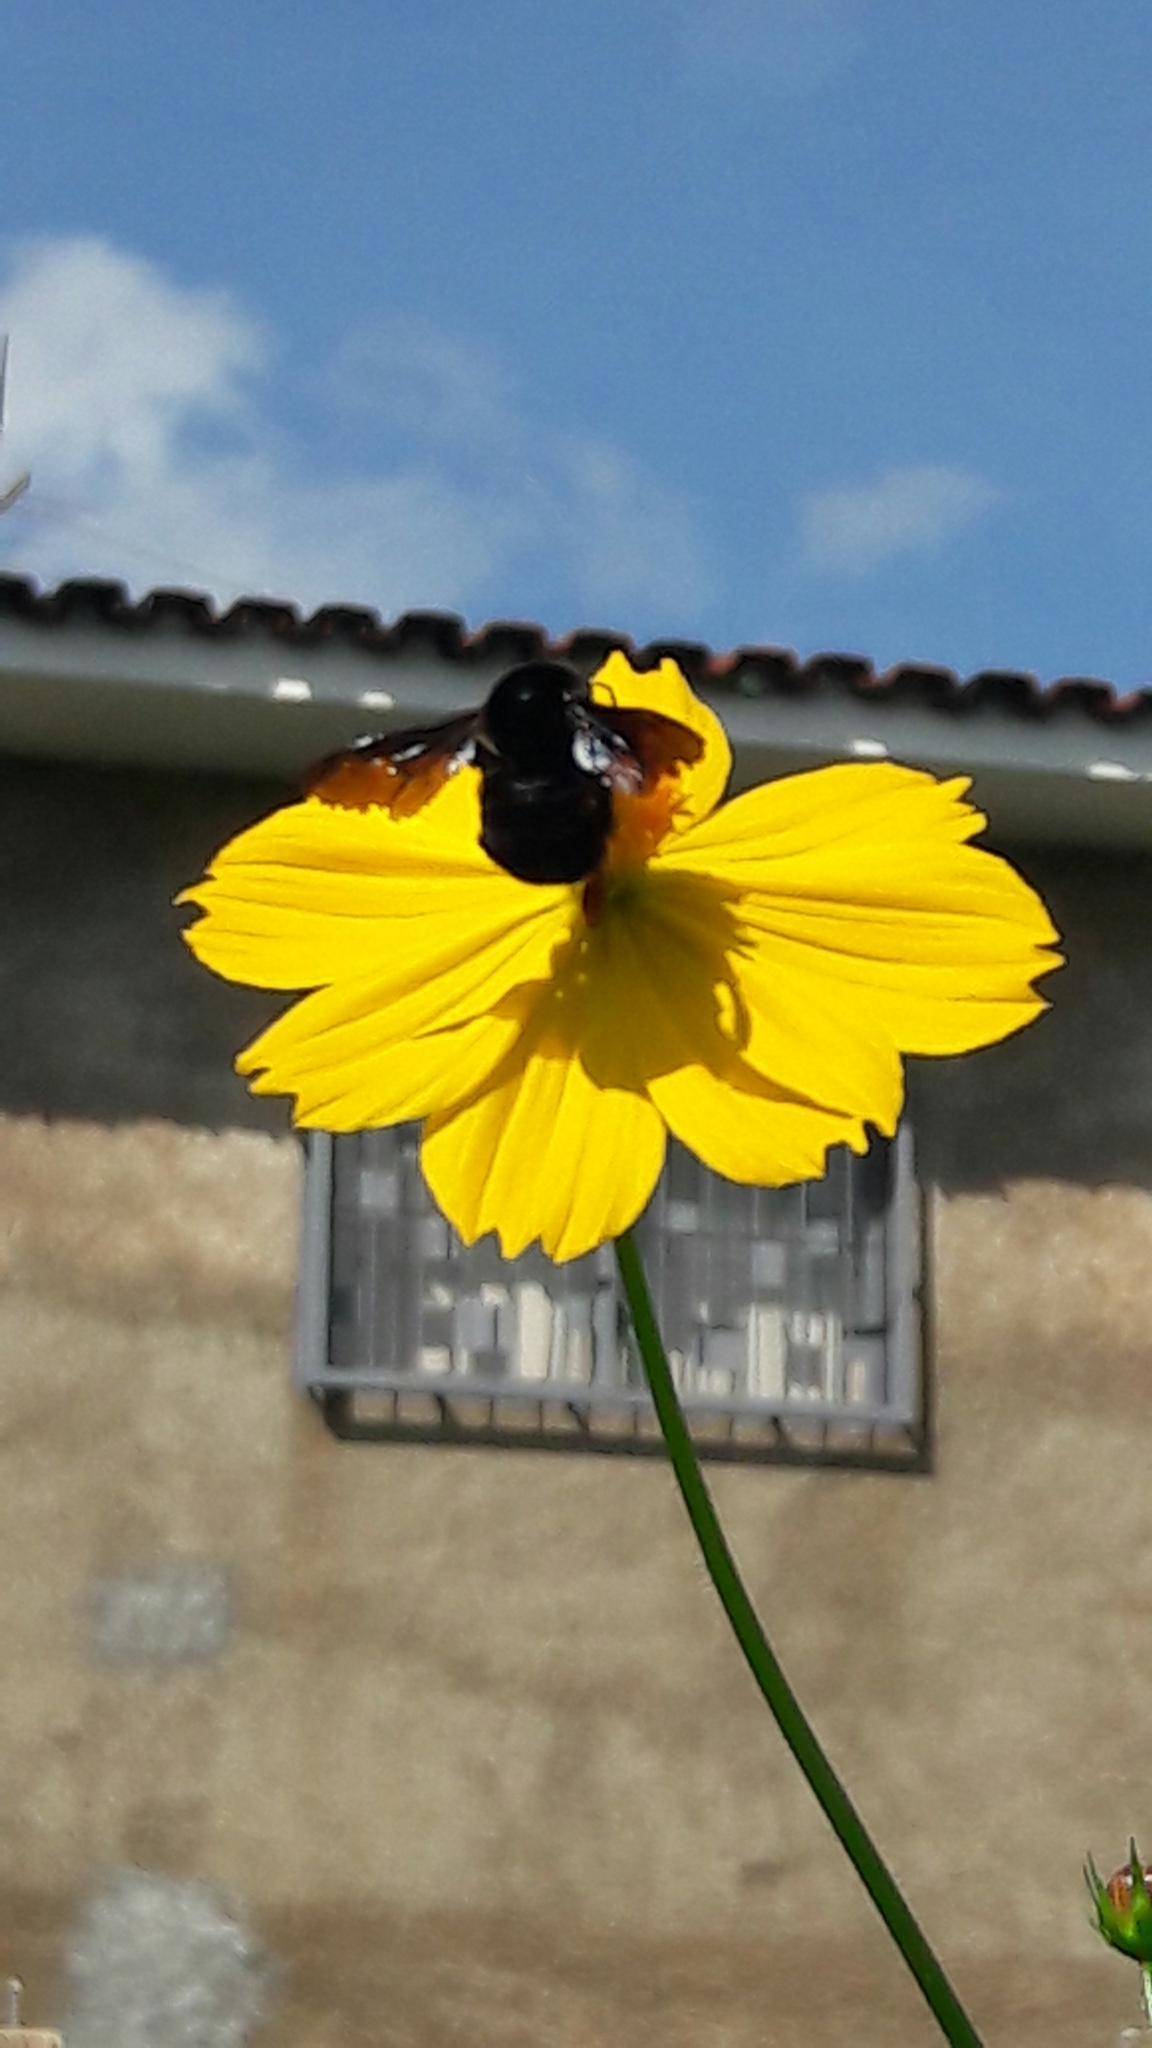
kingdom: Animalia
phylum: Arthropoda
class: Insecta
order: Hymenoptera
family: Apidae
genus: Bombus
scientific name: Bombus pauloensis
